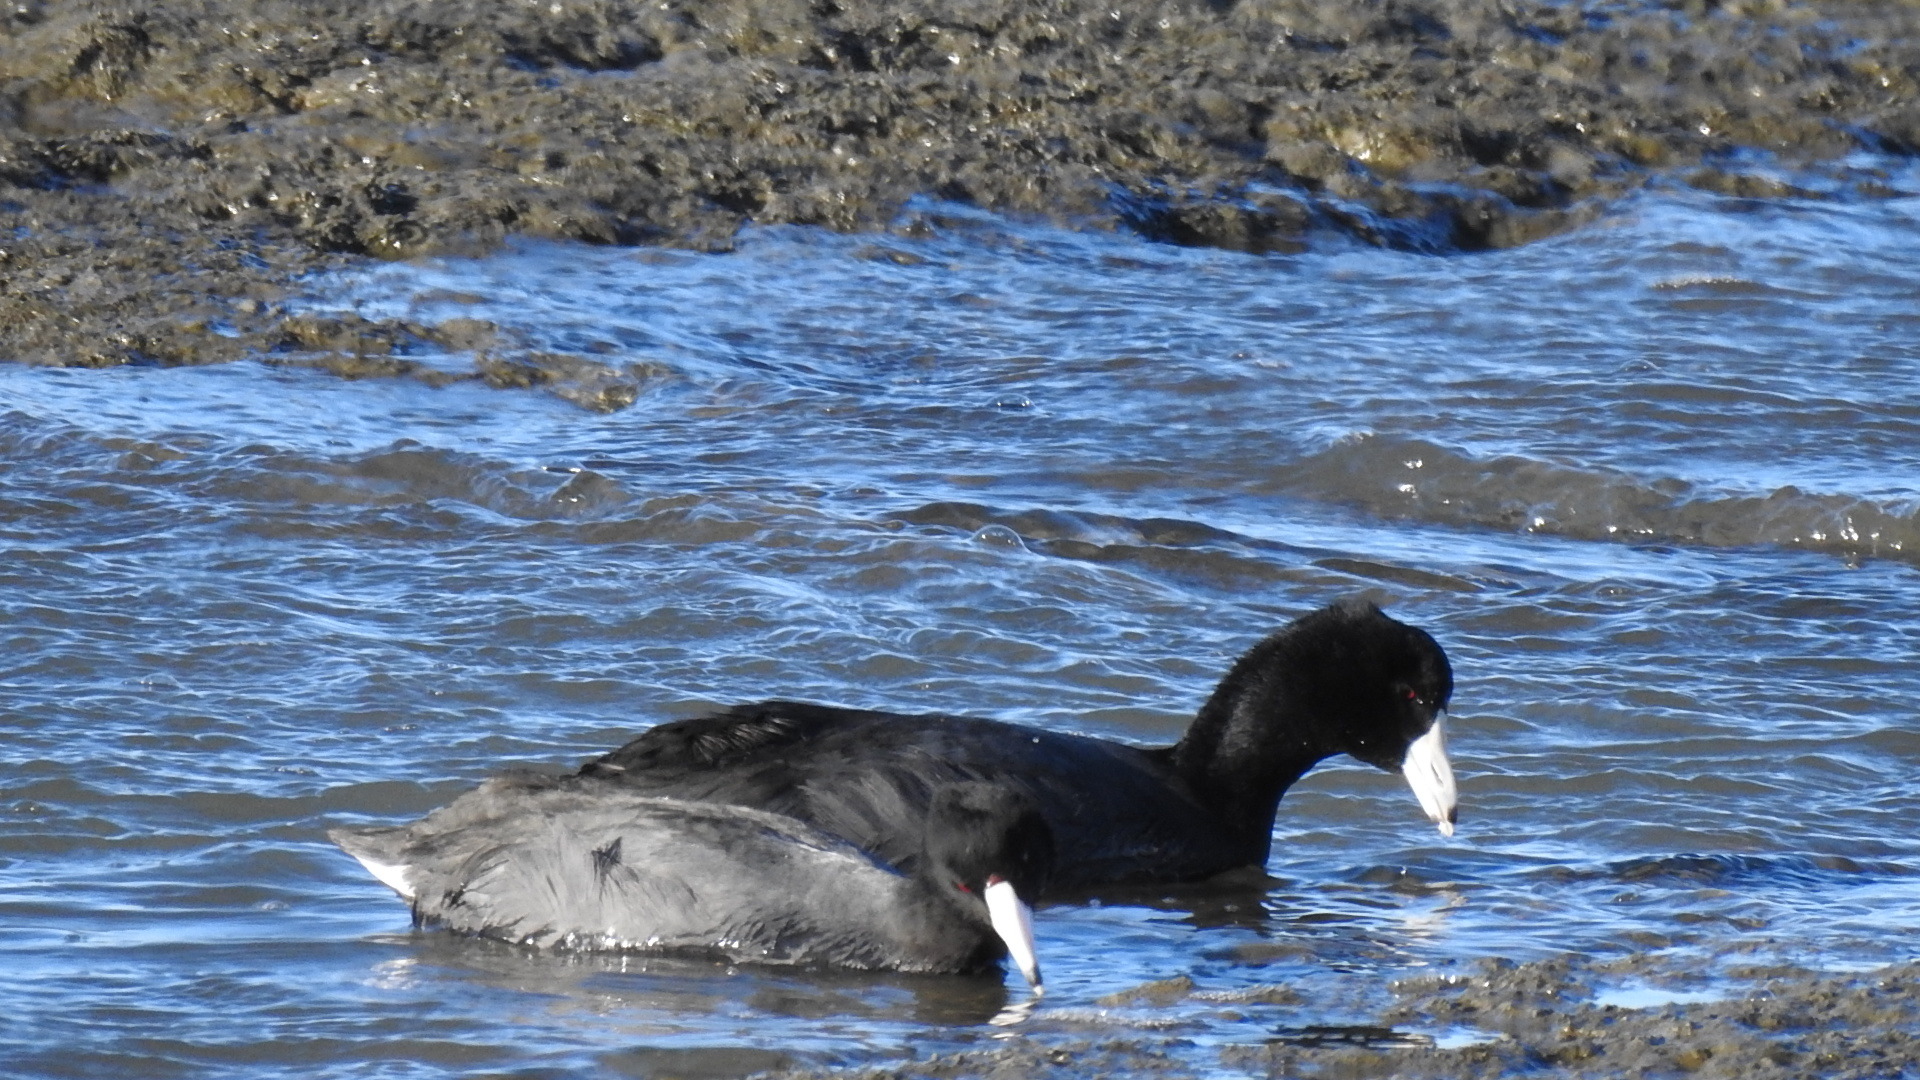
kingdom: Animalia
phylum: Chordata
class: Aves
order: Gruiformes
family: Rallidae
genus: Fulica
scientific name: Fulica americana
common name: American coot
